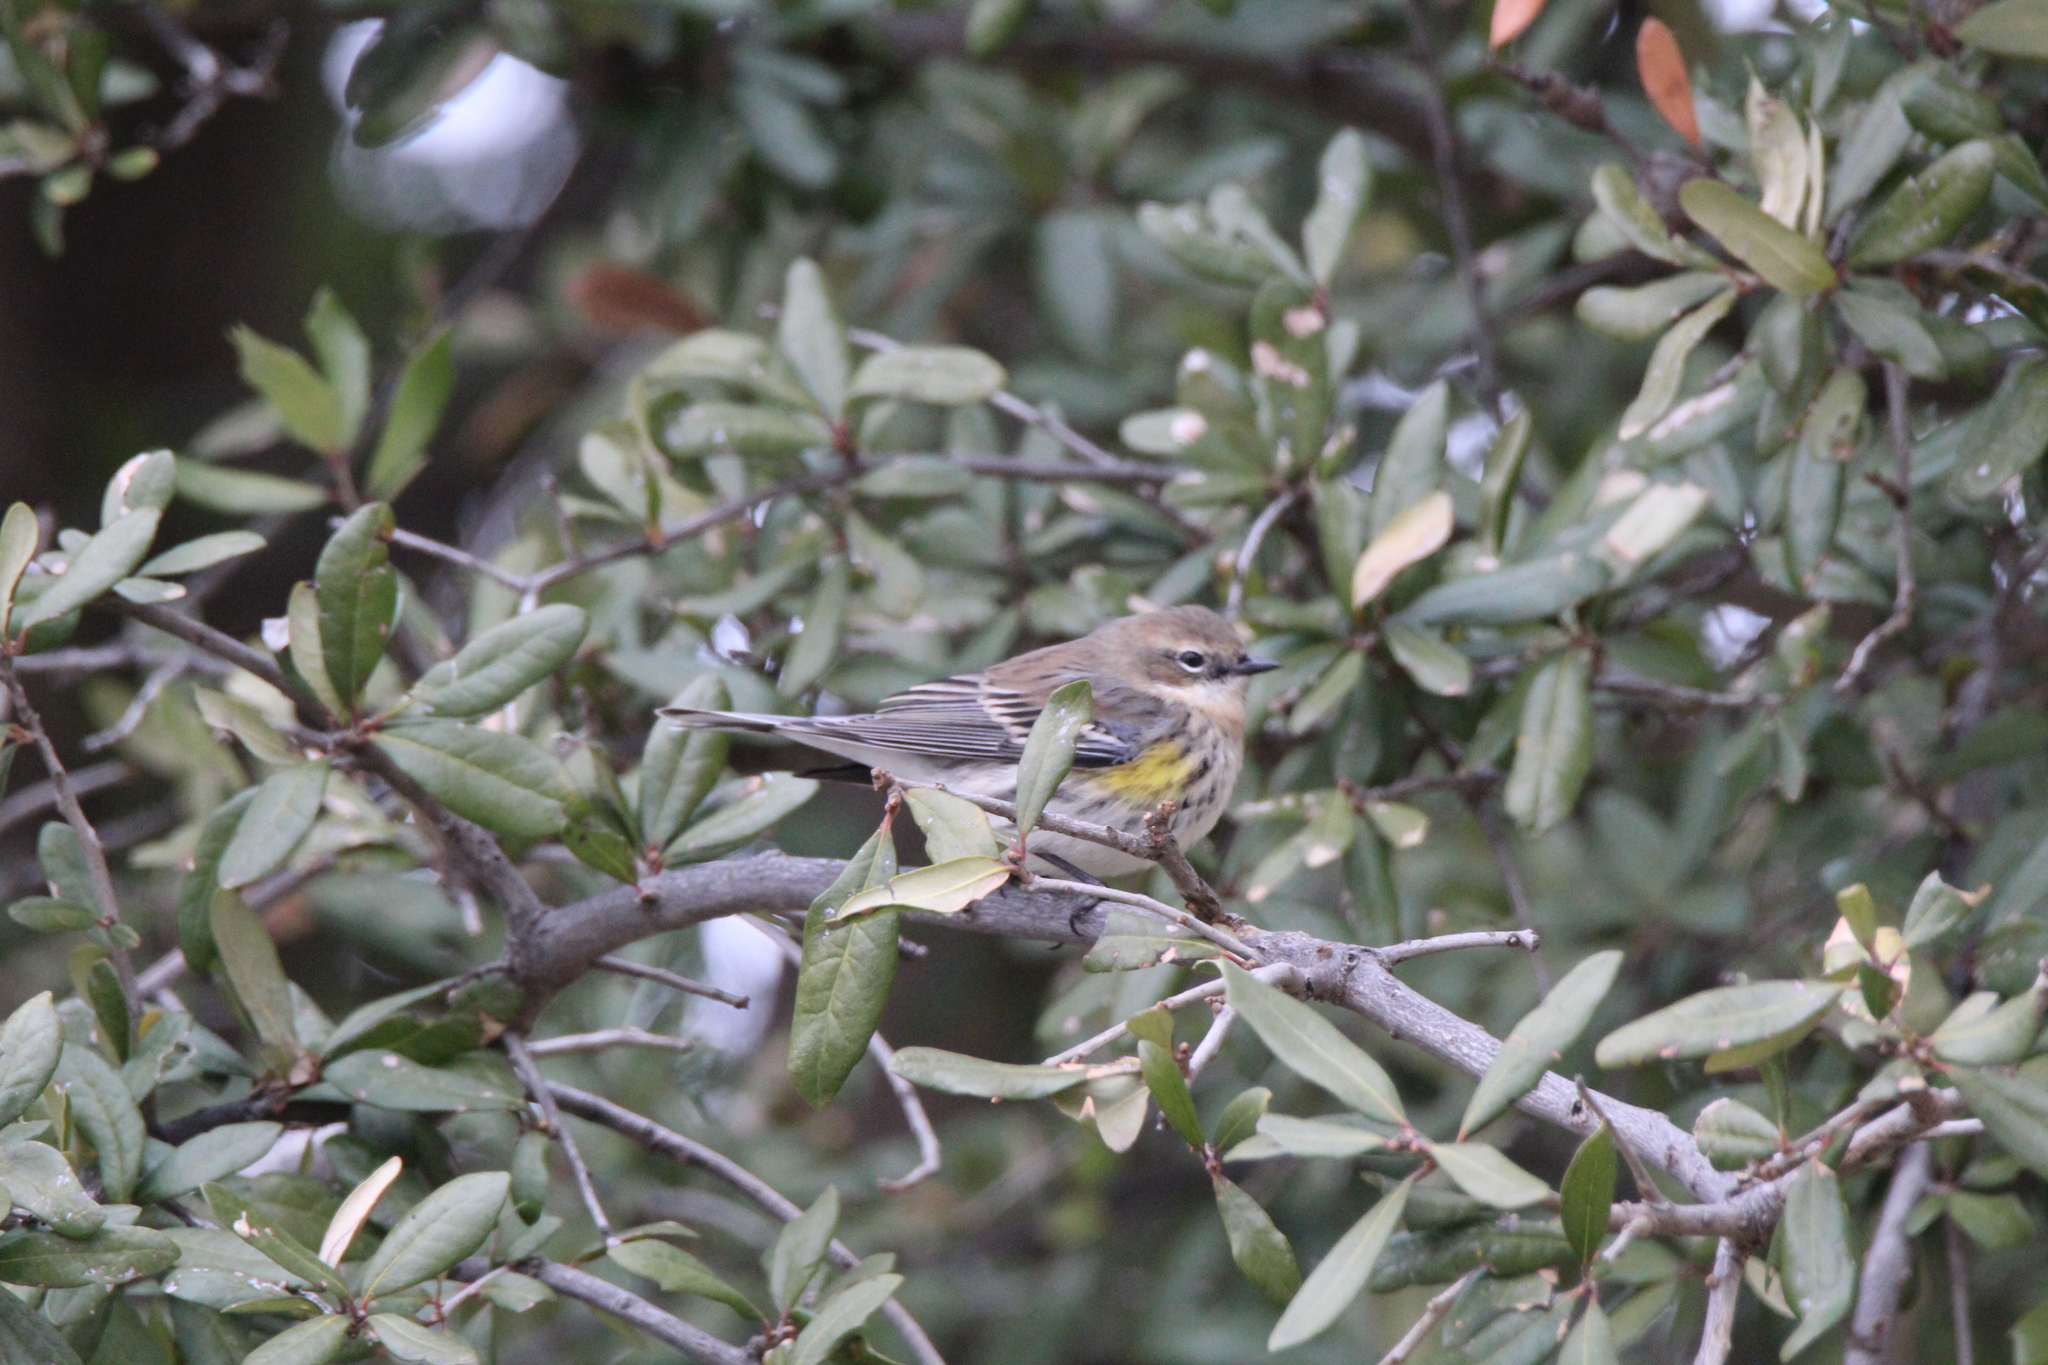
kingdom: Animalia
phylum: Chordata
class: Aves
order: Passeriformes
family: Parulidae
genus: Setophaga
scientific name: Setophaga coronata
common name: Myrtle warbler
